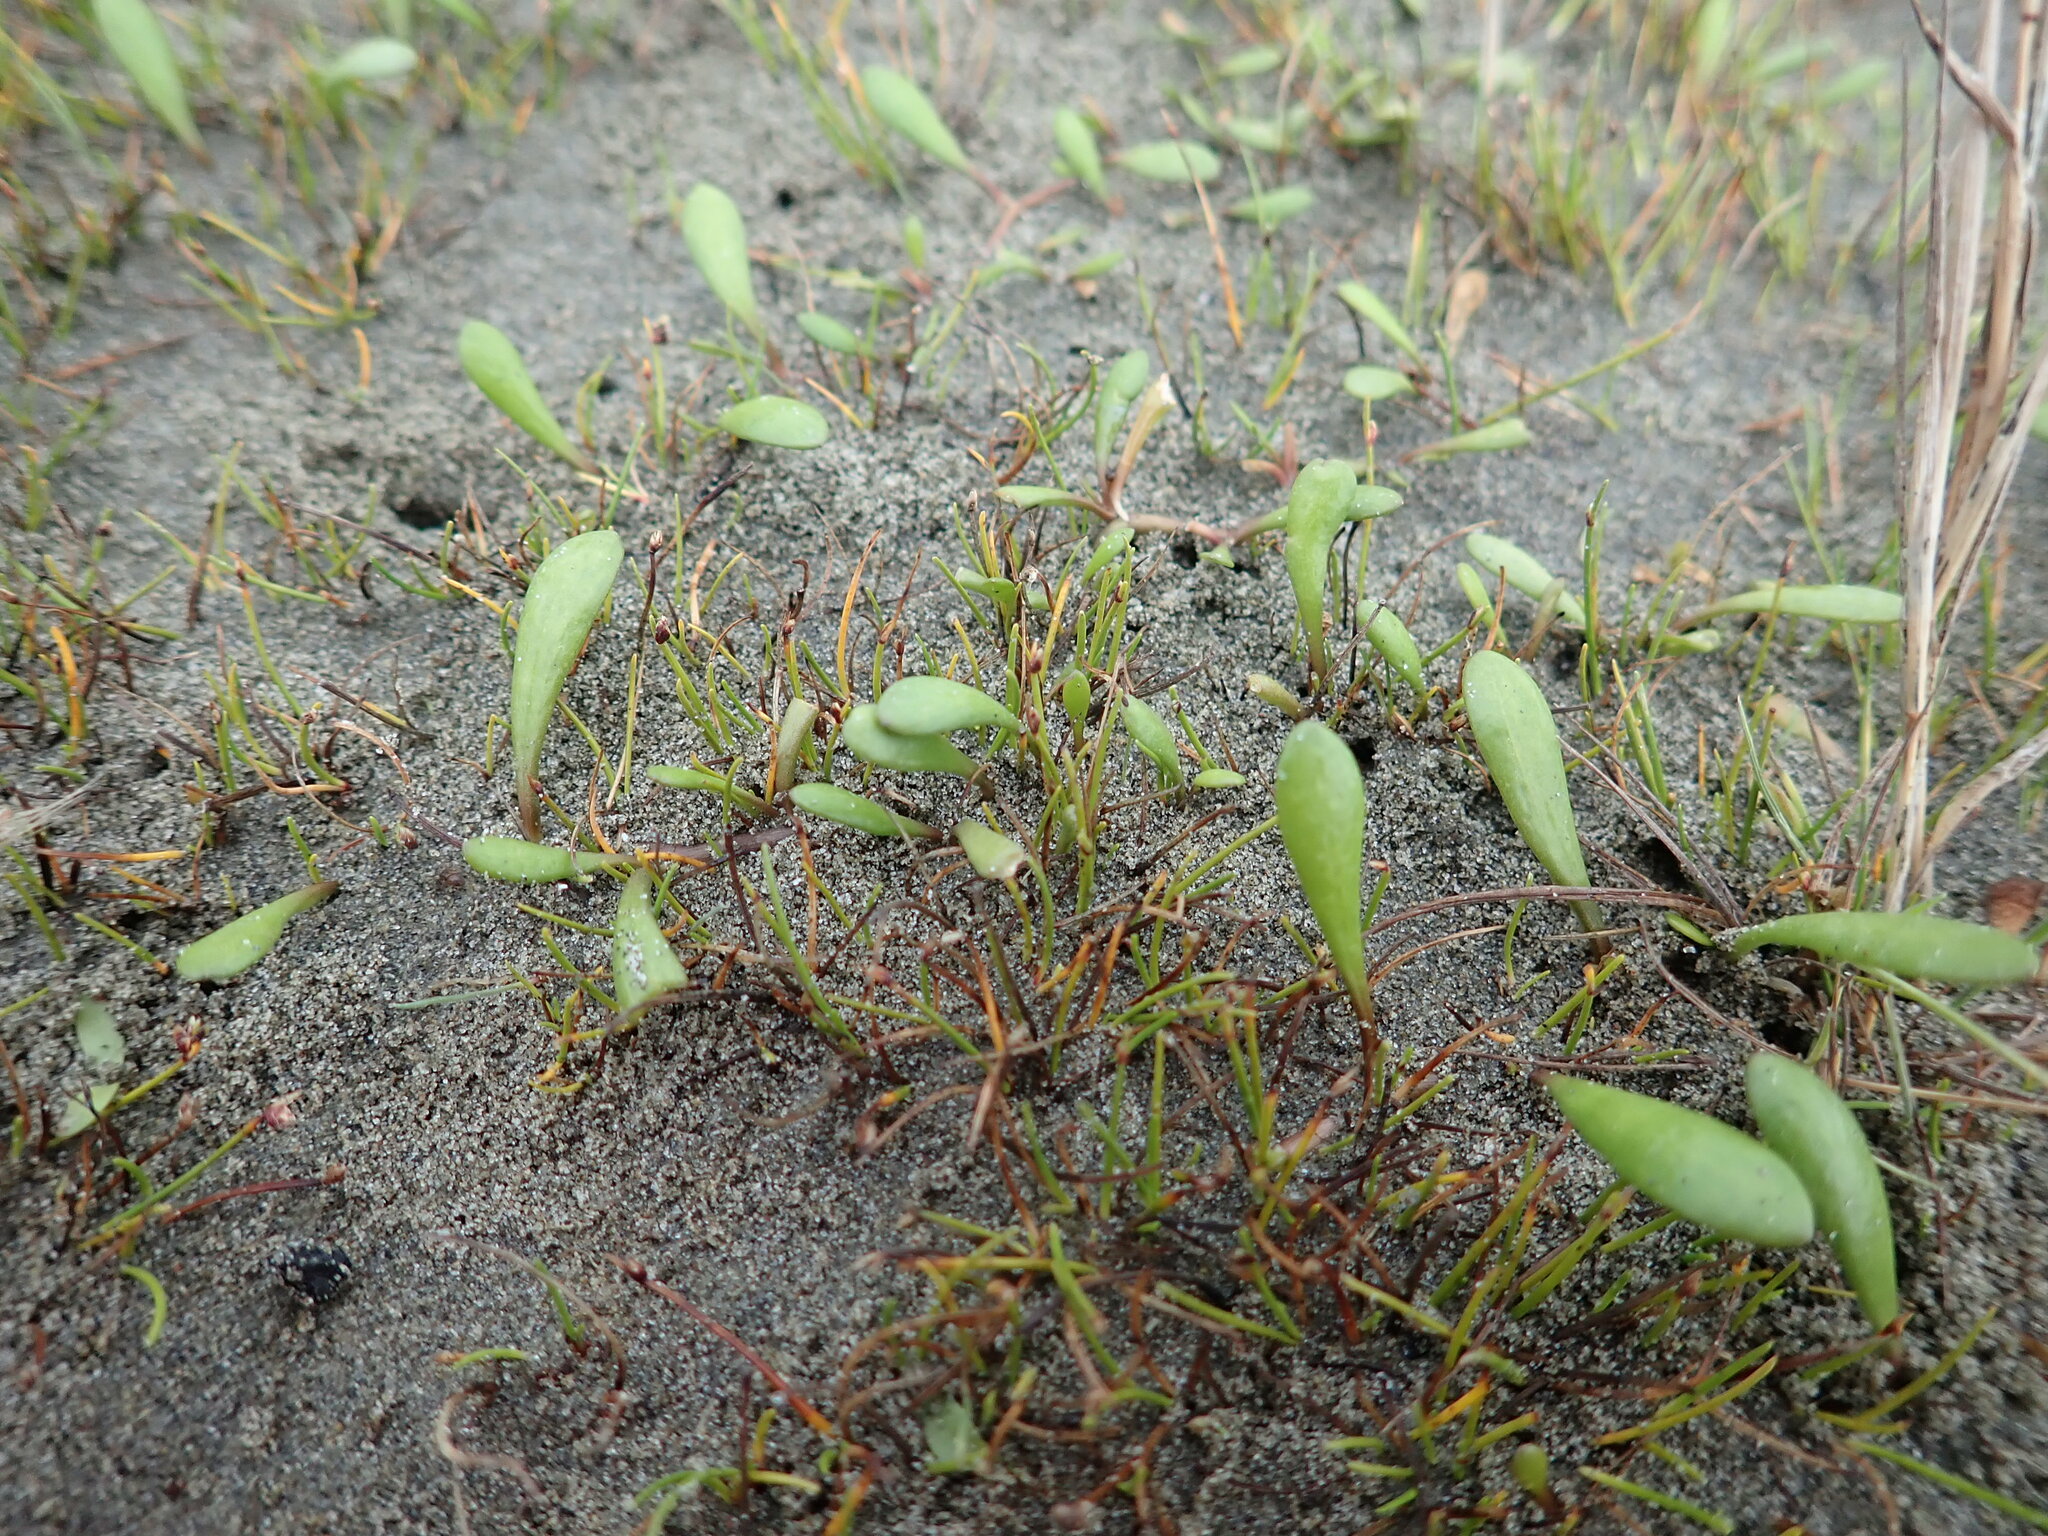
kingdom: Plantae
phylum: Tracheophyta
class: Magnoliopsida
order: Asterales
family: Goodeniaceae
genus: Goodenia
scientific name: Goodenia radicans
